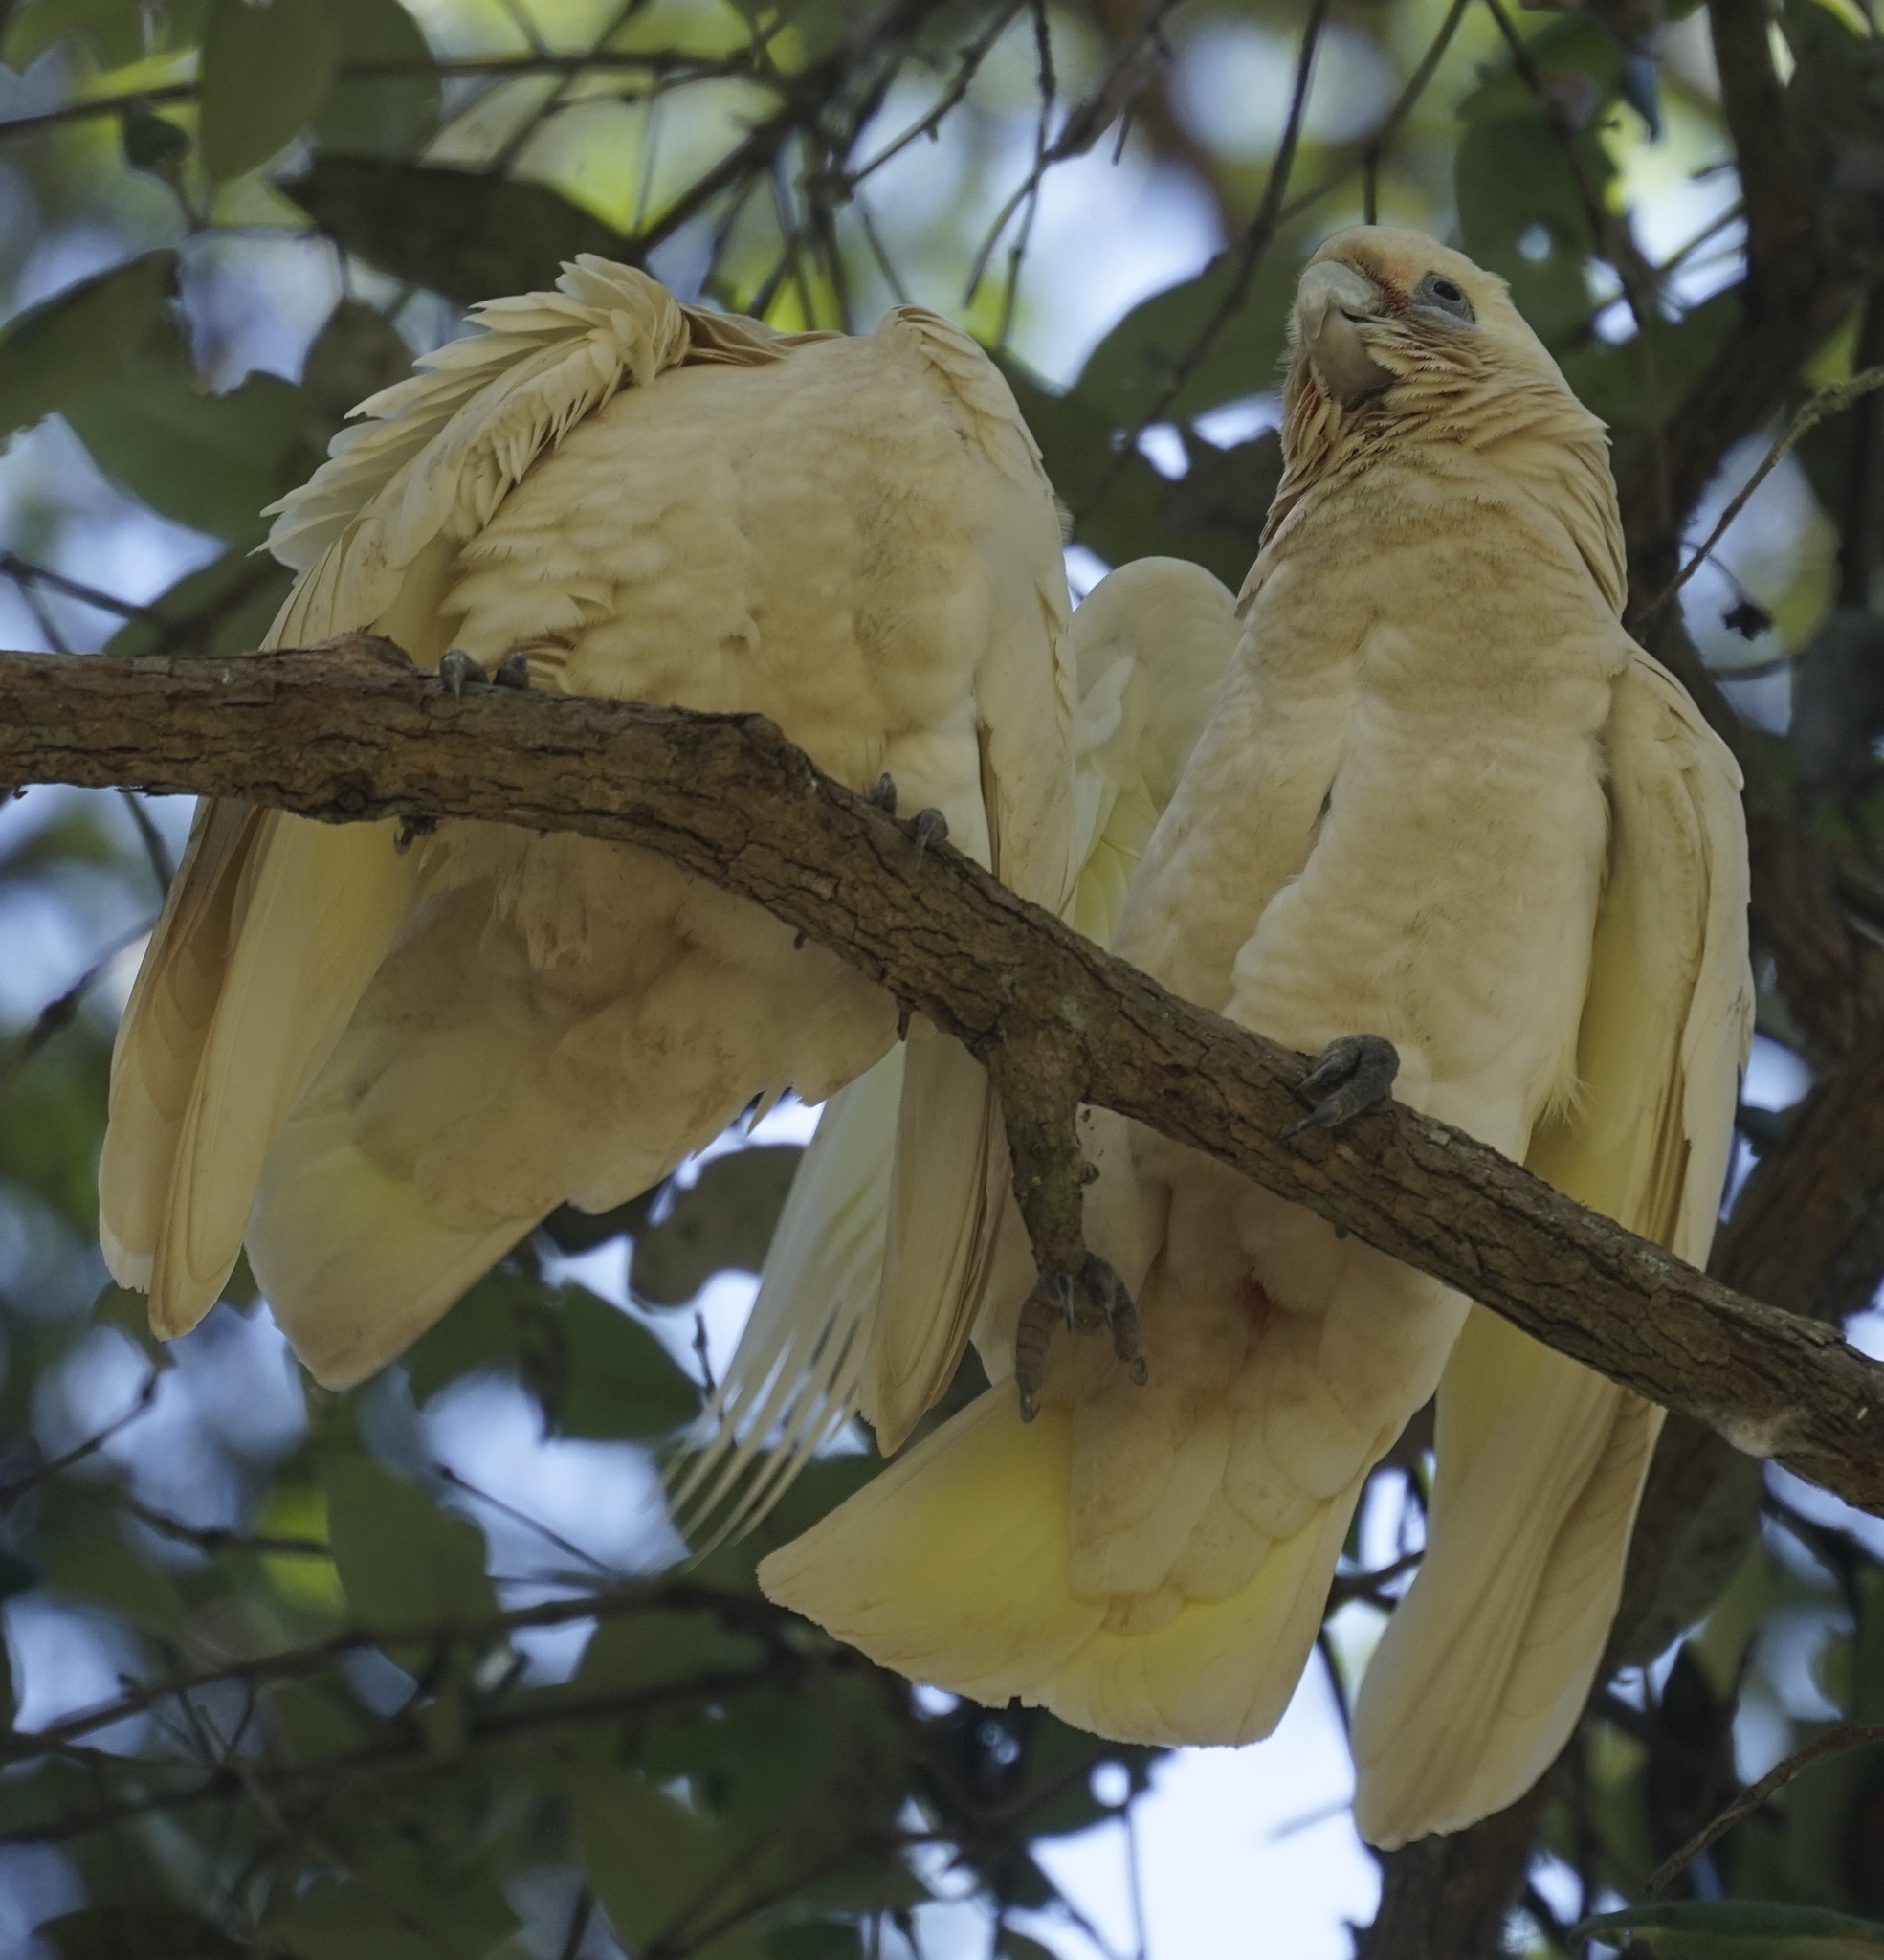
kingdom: Animalia
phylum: Chordata
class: Aves
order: Psittaciformes
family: Psittacidae
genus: Cacatua
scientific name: Cacatua sanguinea
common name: Little corella
